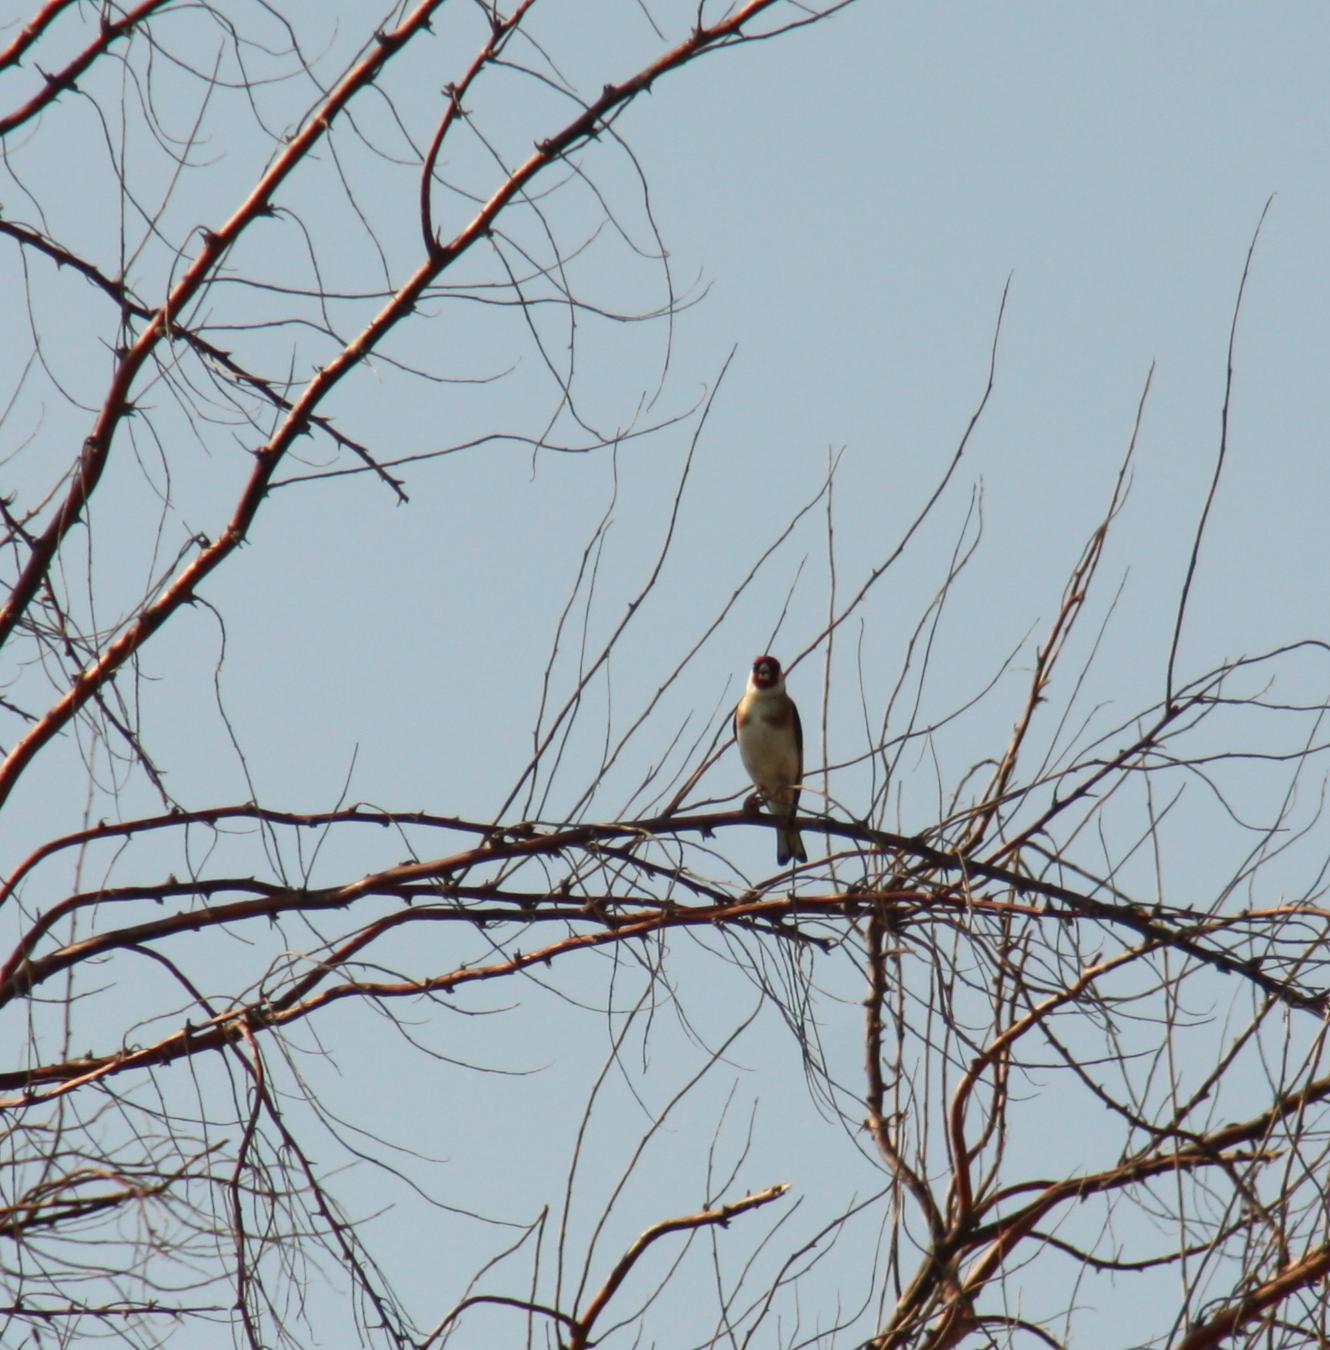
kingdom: Animalia
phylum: Chordata
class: Aves
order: Passeriformes
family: Fringillidae
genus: Carduelis
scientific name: Carduelis carduelis
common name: European goldfinch
